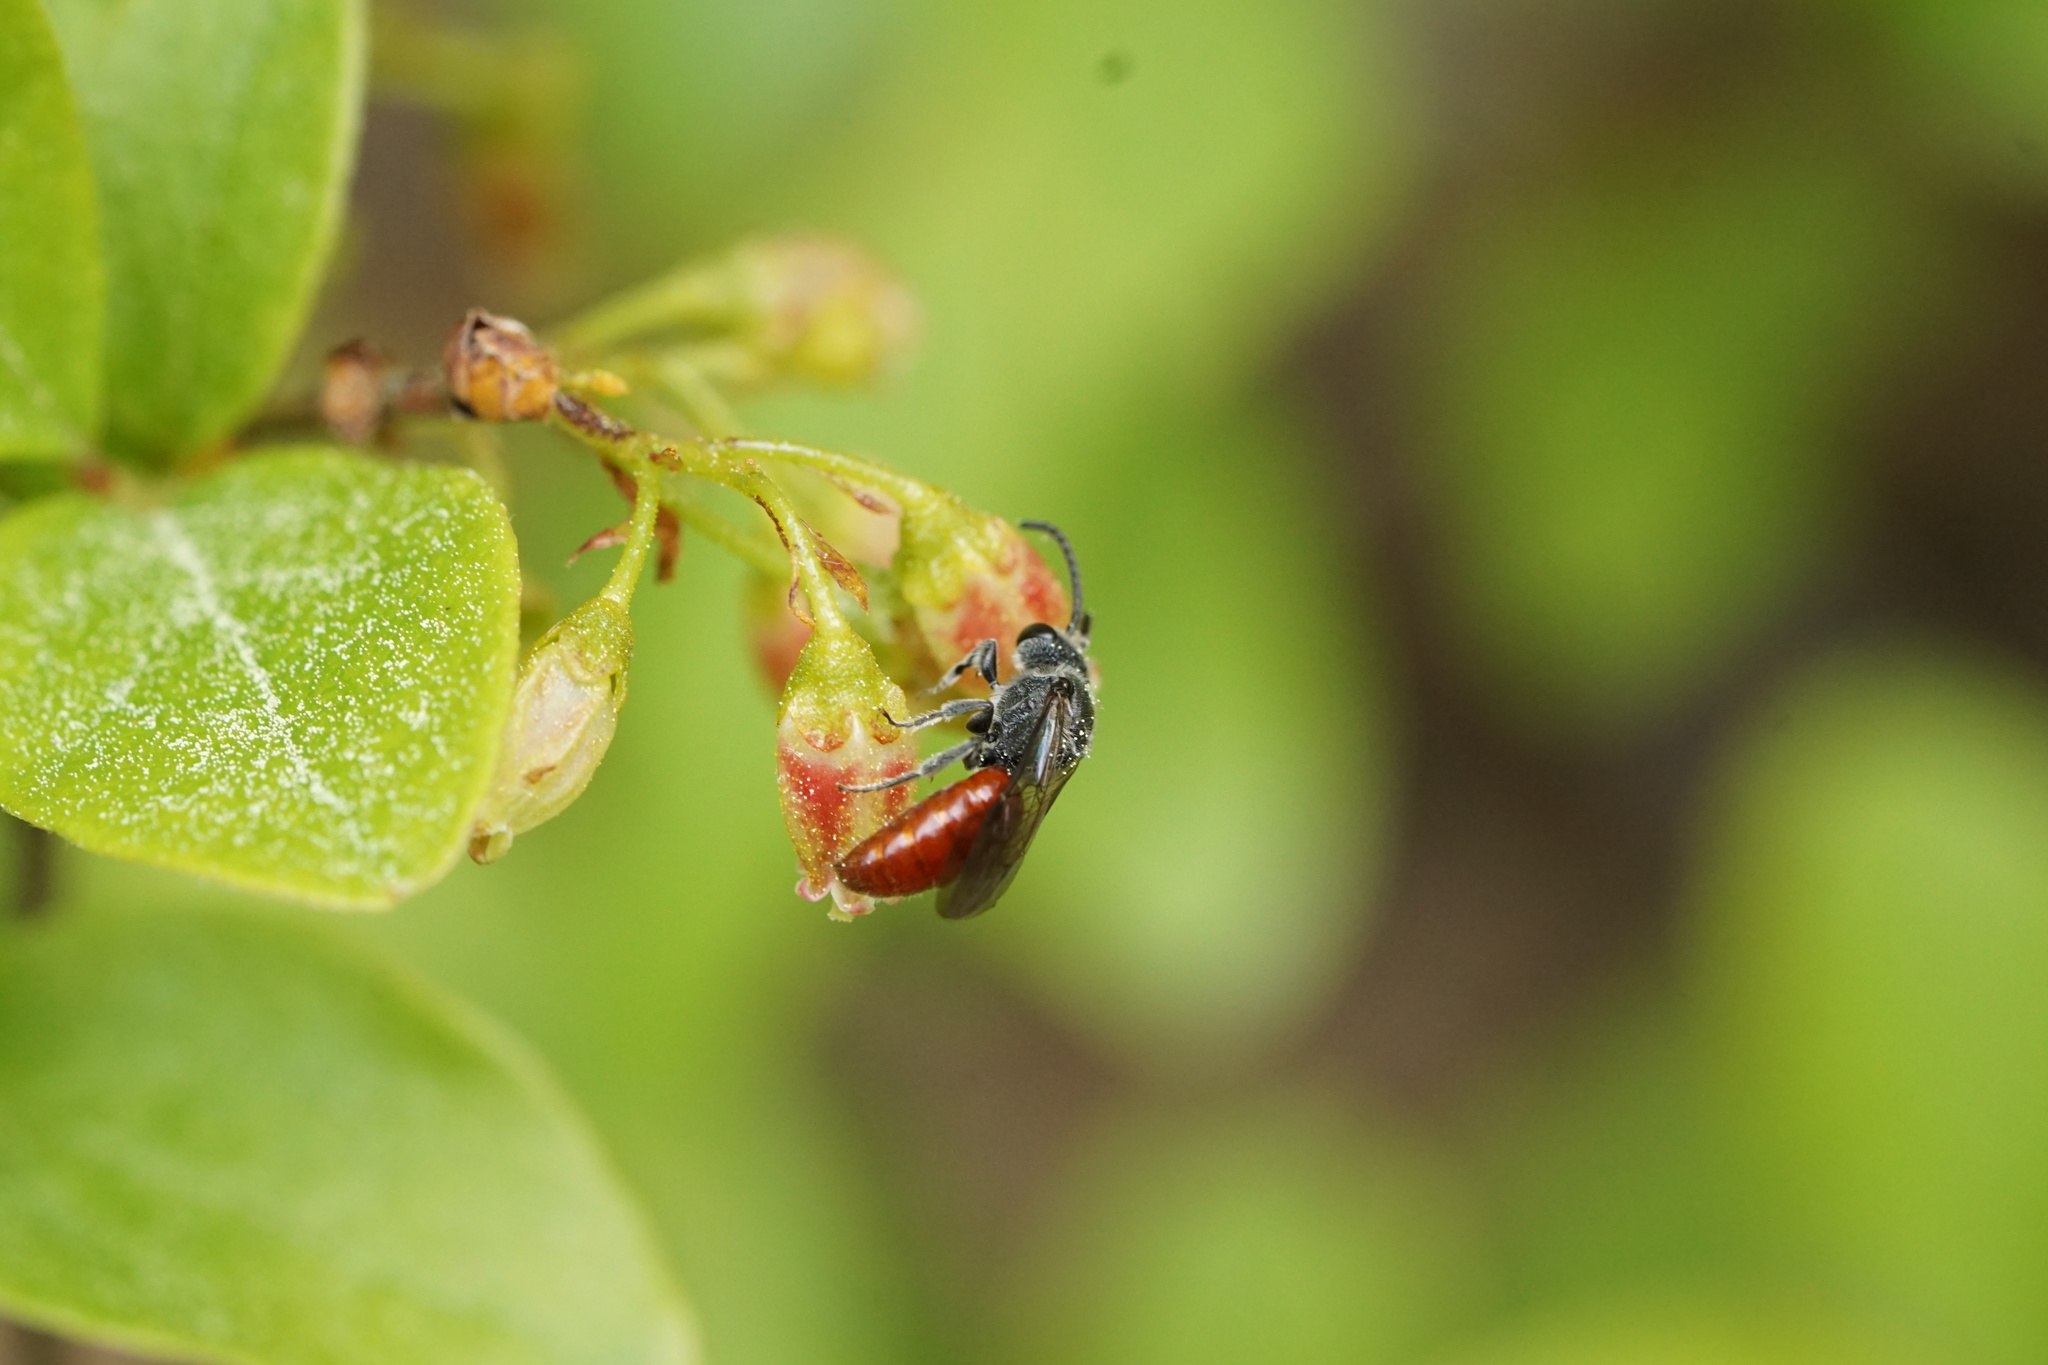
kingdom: Animalia
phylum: Arthropoda
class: Insecta
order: Hymenoptera
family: Halictidae
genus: Sphecodes
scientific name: Sphecodes aroniae
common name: Chokeberry cuckoo sweat bee
